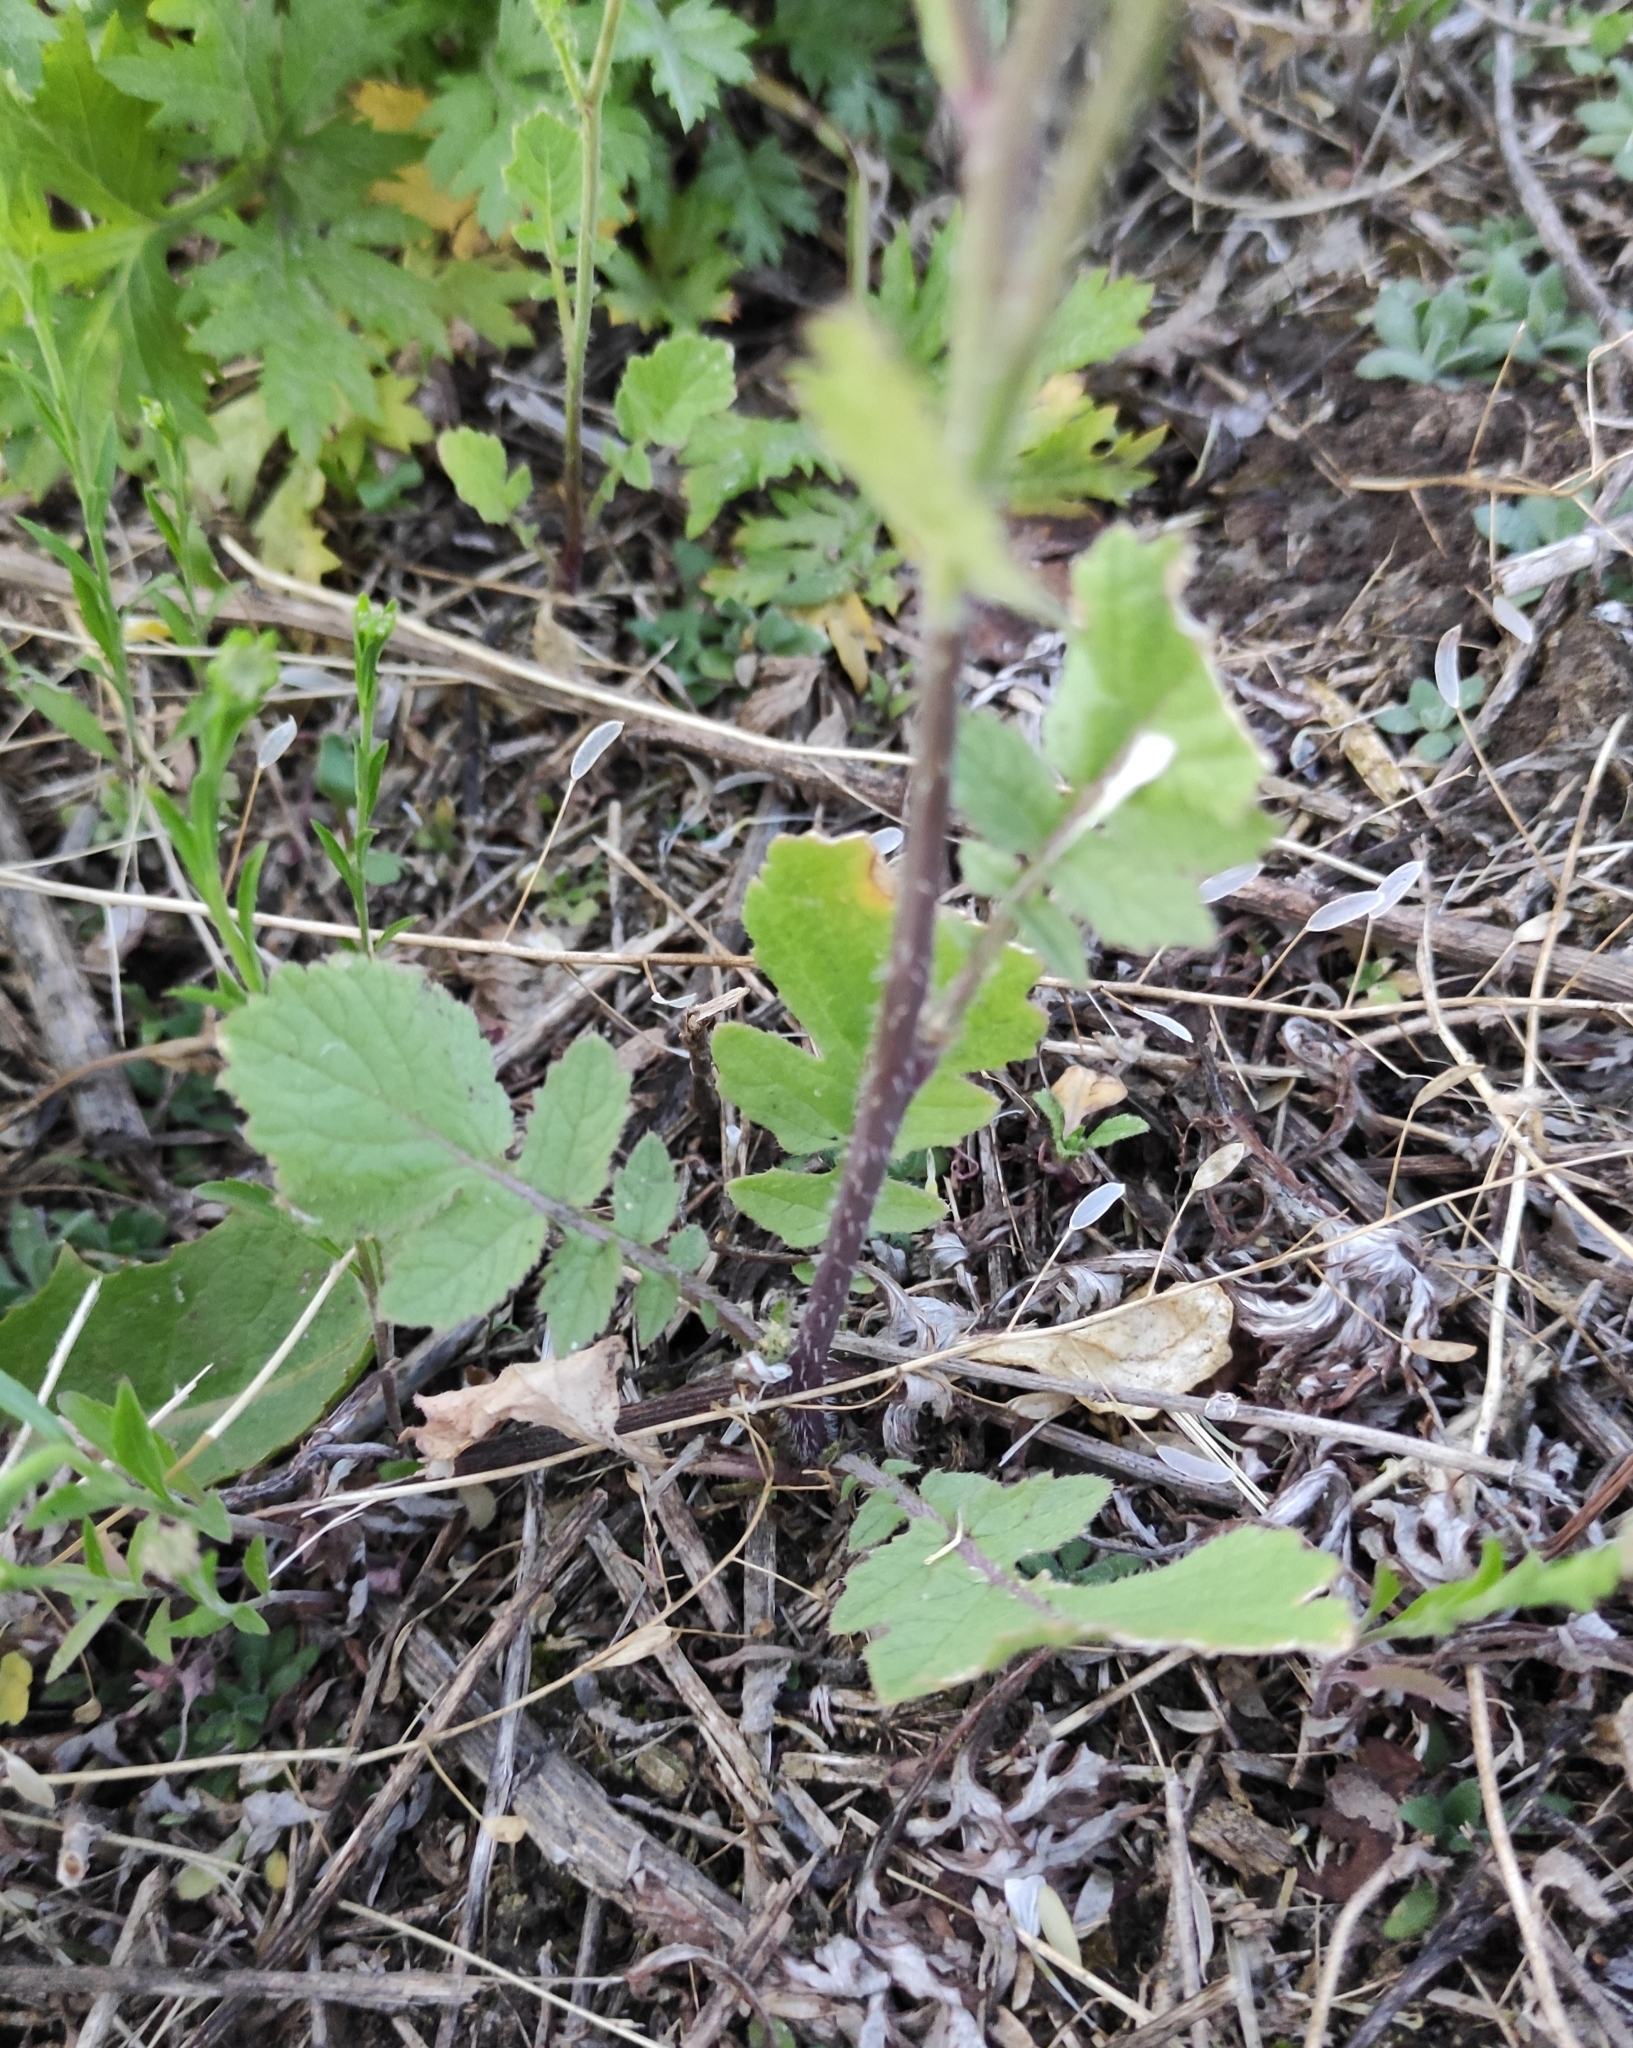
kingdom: Plantae
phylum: Tracheophyta
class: Magnoliopsida
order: Brassicales
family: Brassicaceae
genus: Raphanus
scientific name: Raphanus raphanistrum
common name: Wild radish
